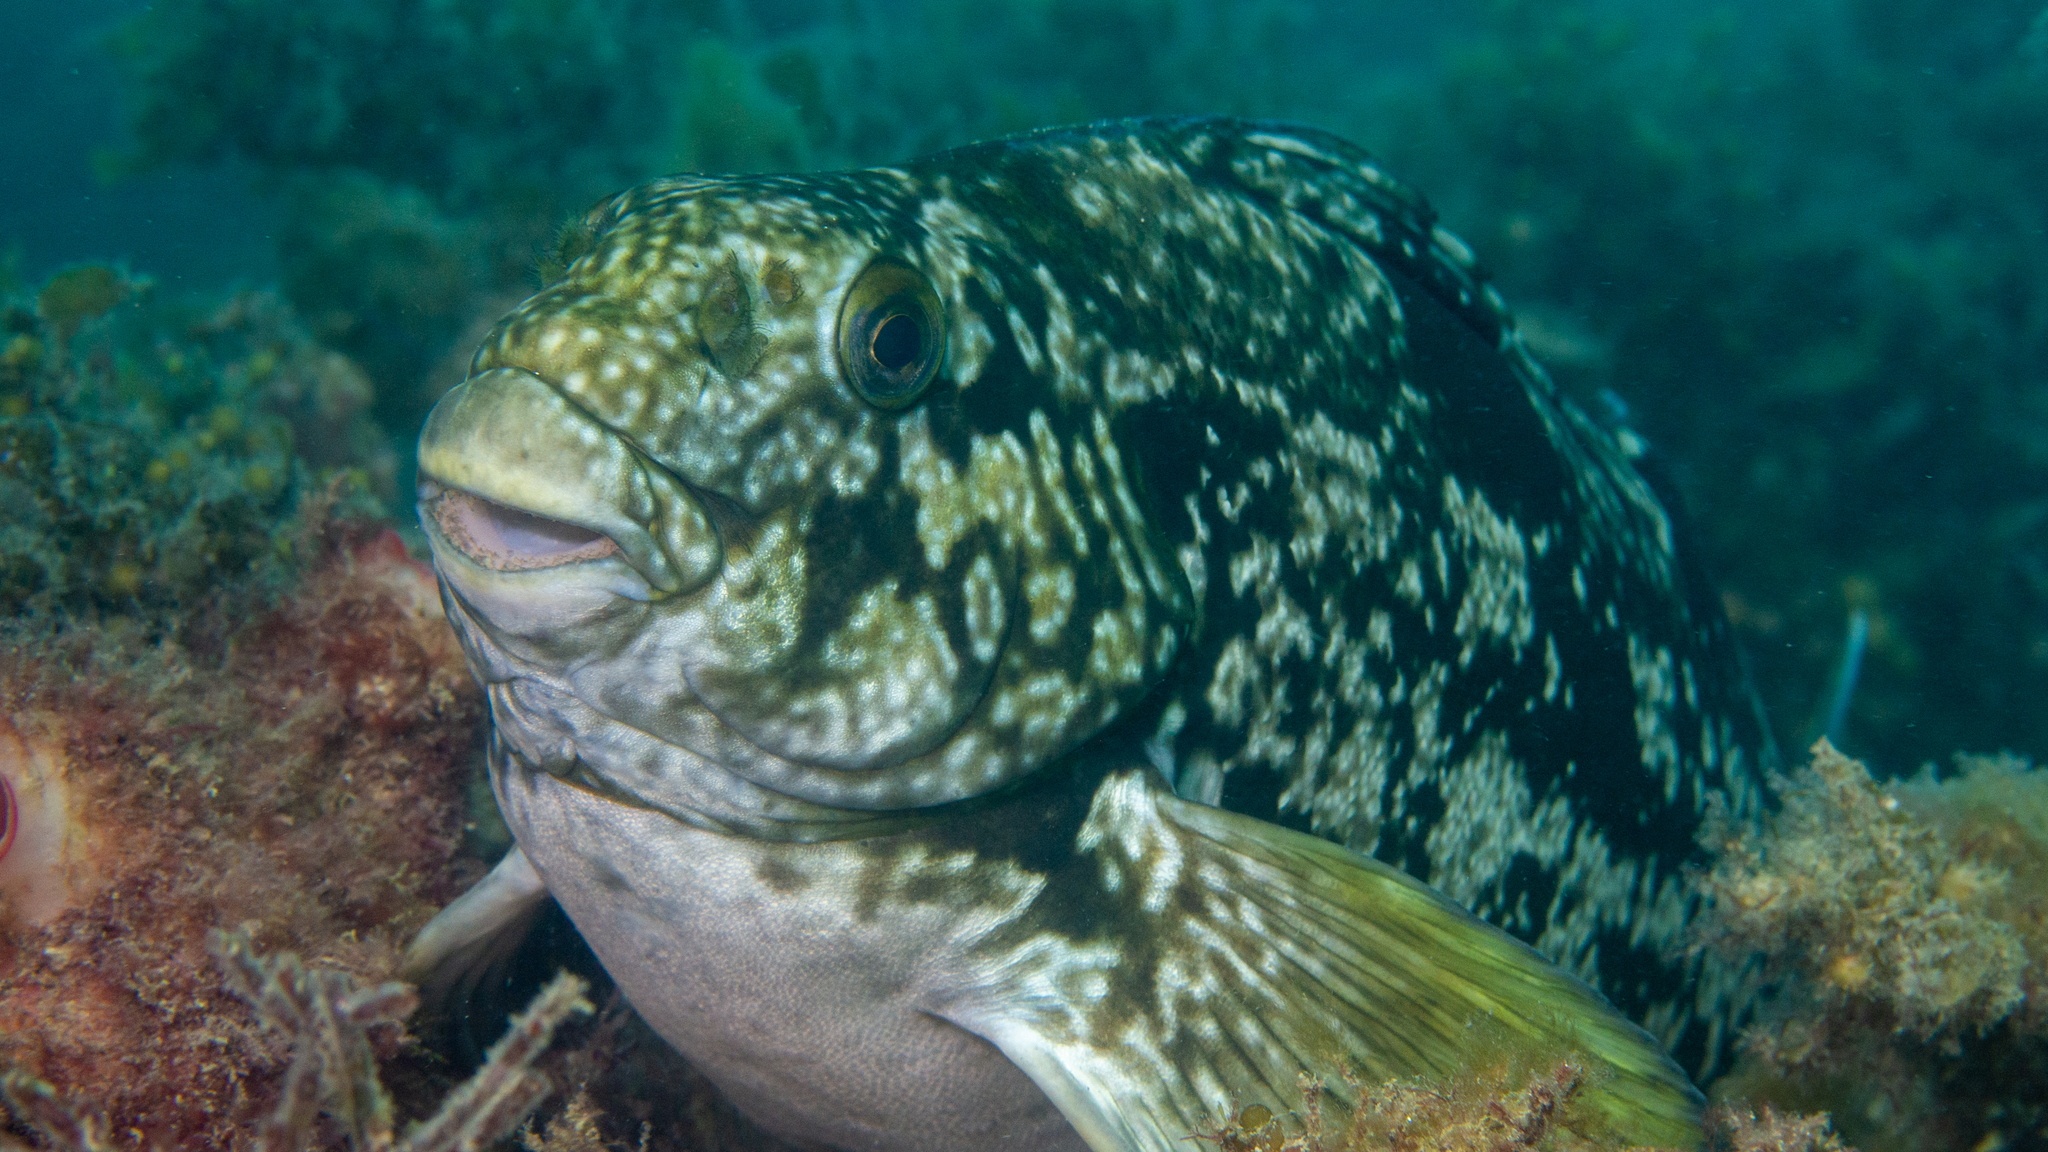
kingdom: Animalia
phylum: Chordata
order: Perciformes
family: Aplodactylidae
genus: Aplodactylus
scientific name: Aplodactylus arctidens
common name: Marblefish
